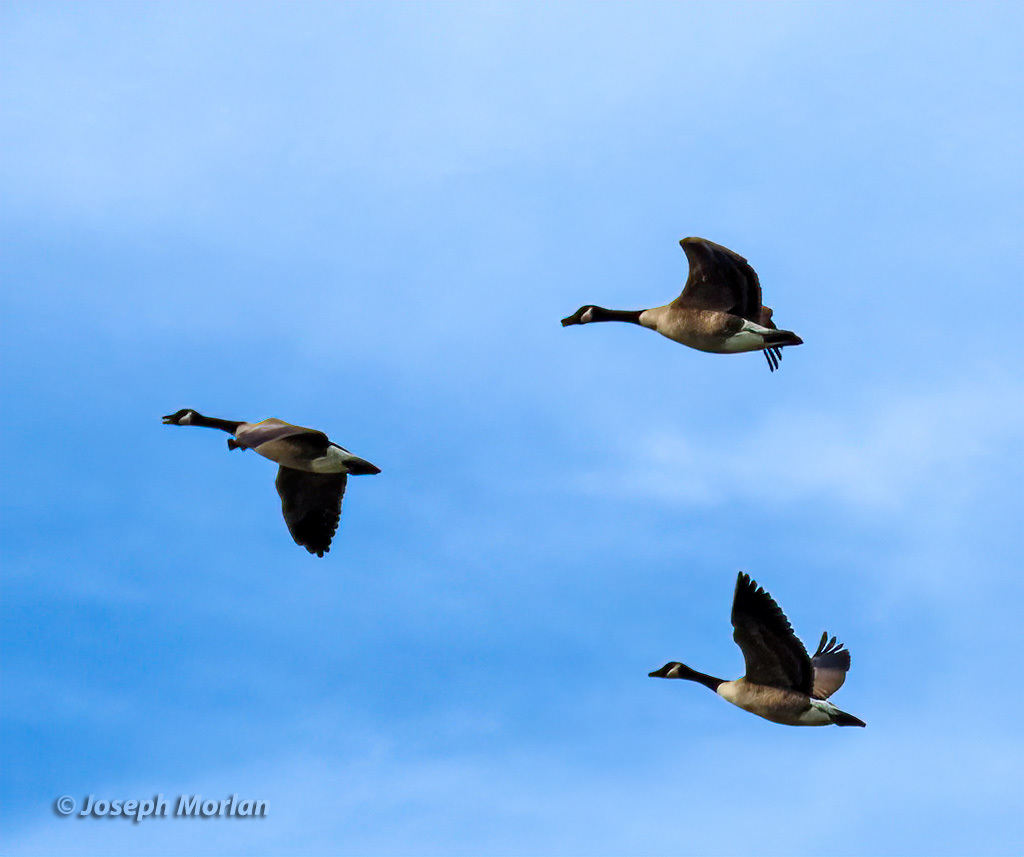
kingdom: Animalia
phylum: Chordata
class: Aves
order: Anseriformes
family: Anatidae
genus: Branta
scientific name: Branta canadensis
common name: Canada goose
